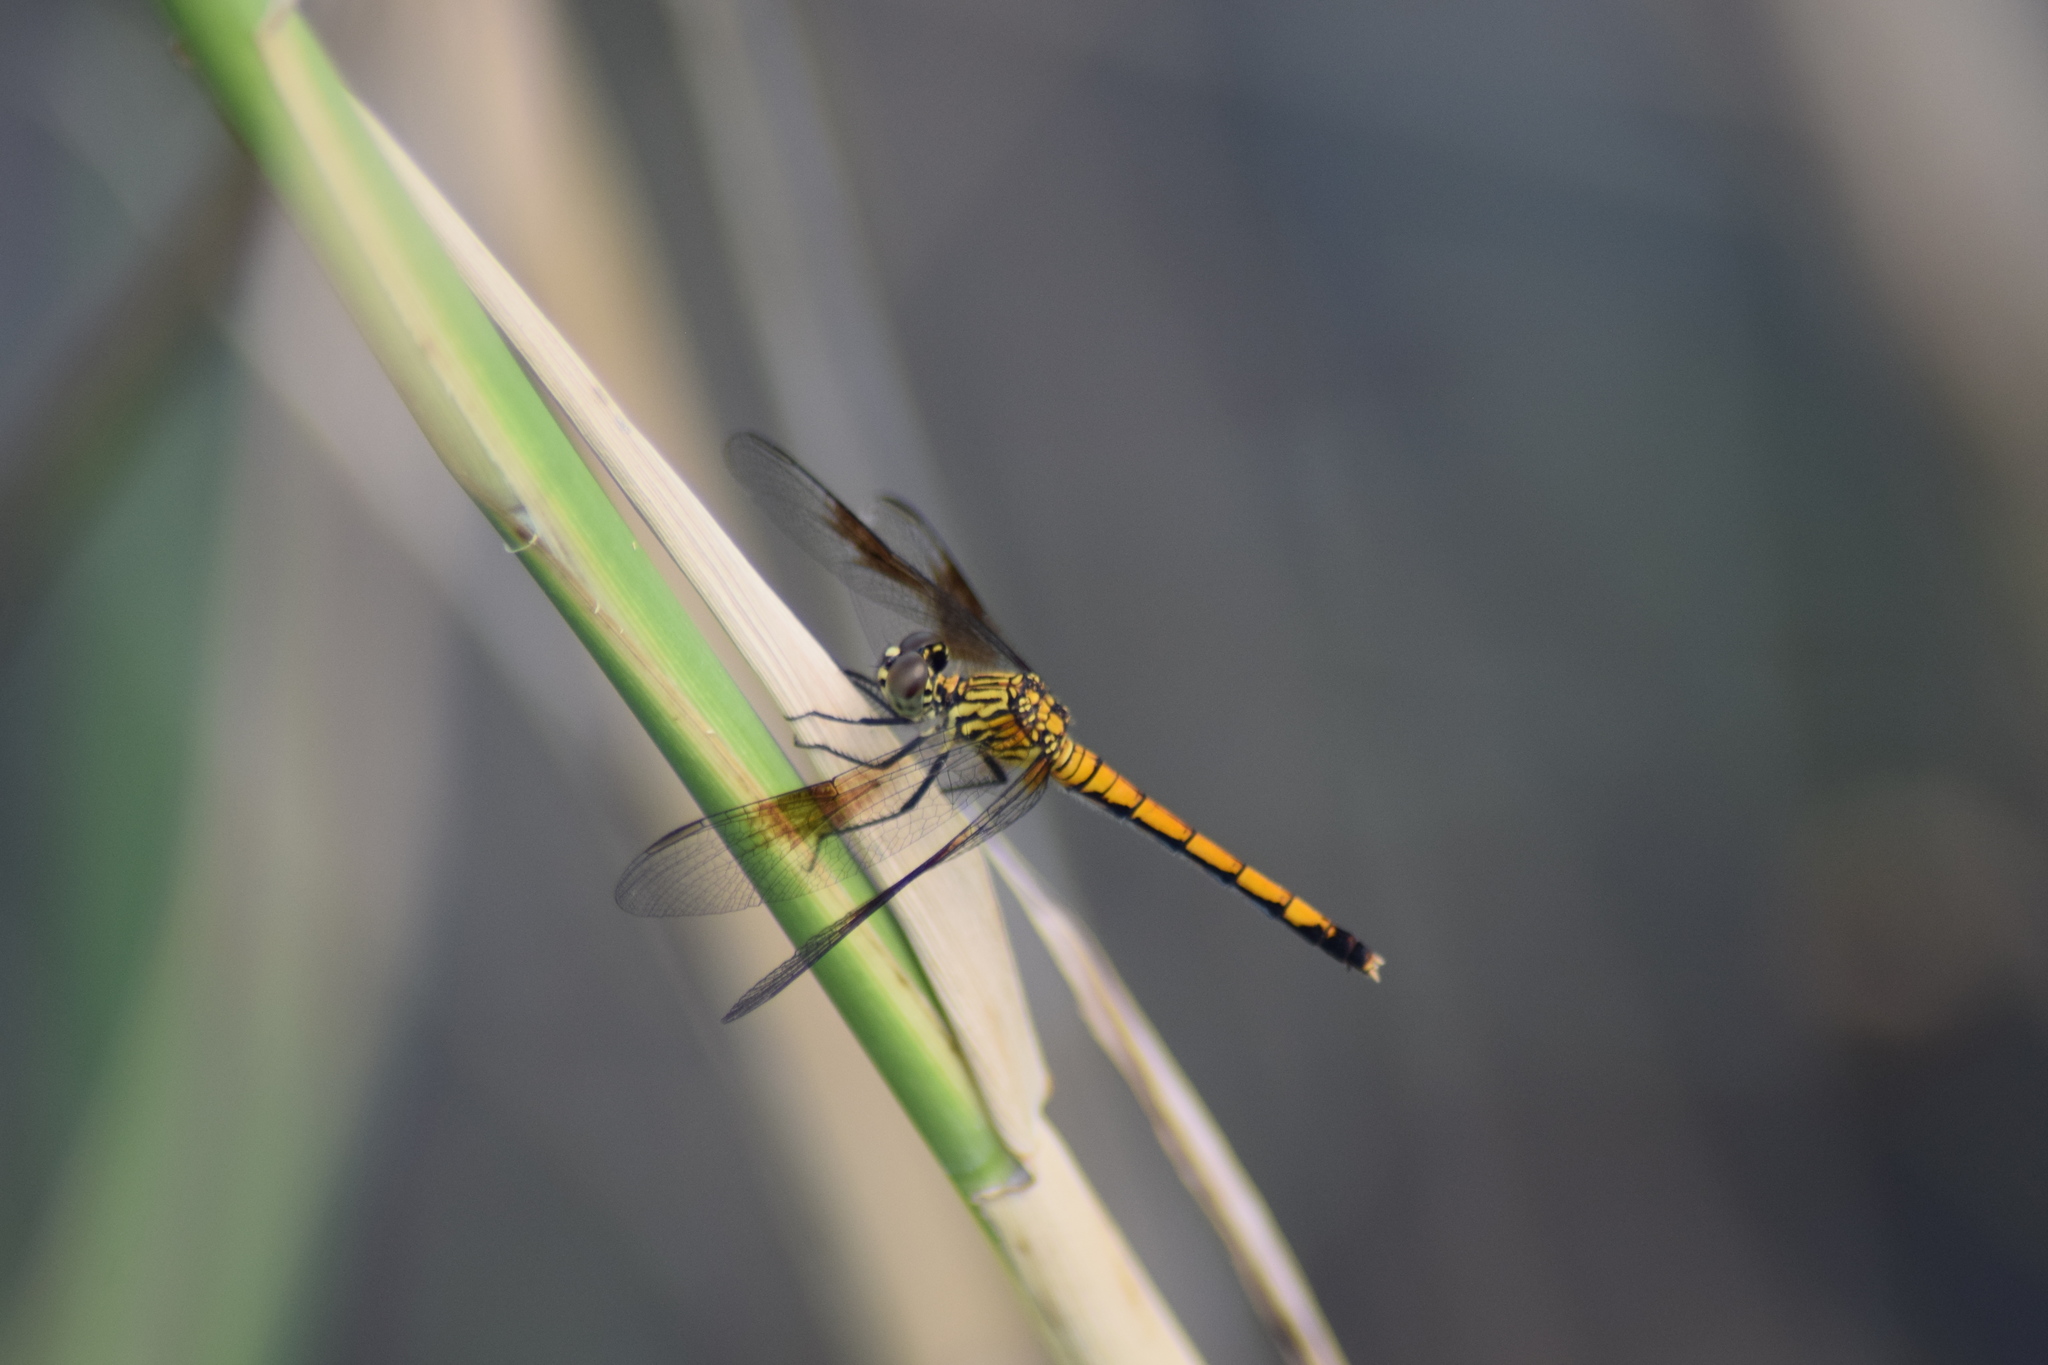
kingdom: Animalia
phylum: Arthropoda
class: Insecta
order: Odonata
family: Libellulidae
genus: Erythrodiplax
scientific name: Erythrodiplax berenice
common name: Seaside dragonlet
